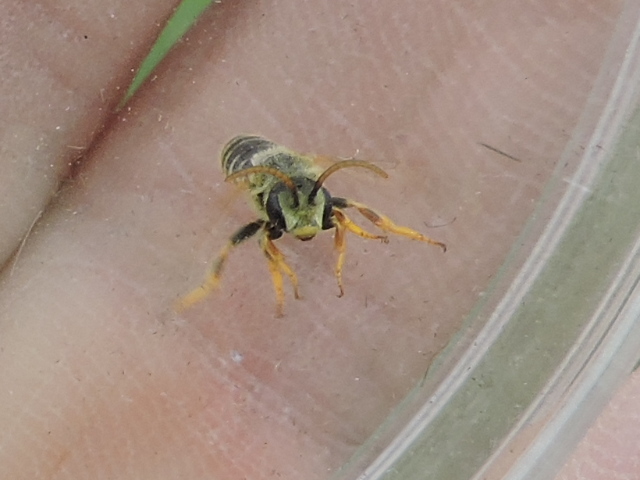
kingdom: Animalia
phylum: Arthropoda
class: Insecta
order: Hymenoptera
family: Halictidae
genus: Halictus
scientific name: Halictus ligatus
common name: Ligated furrow bee
